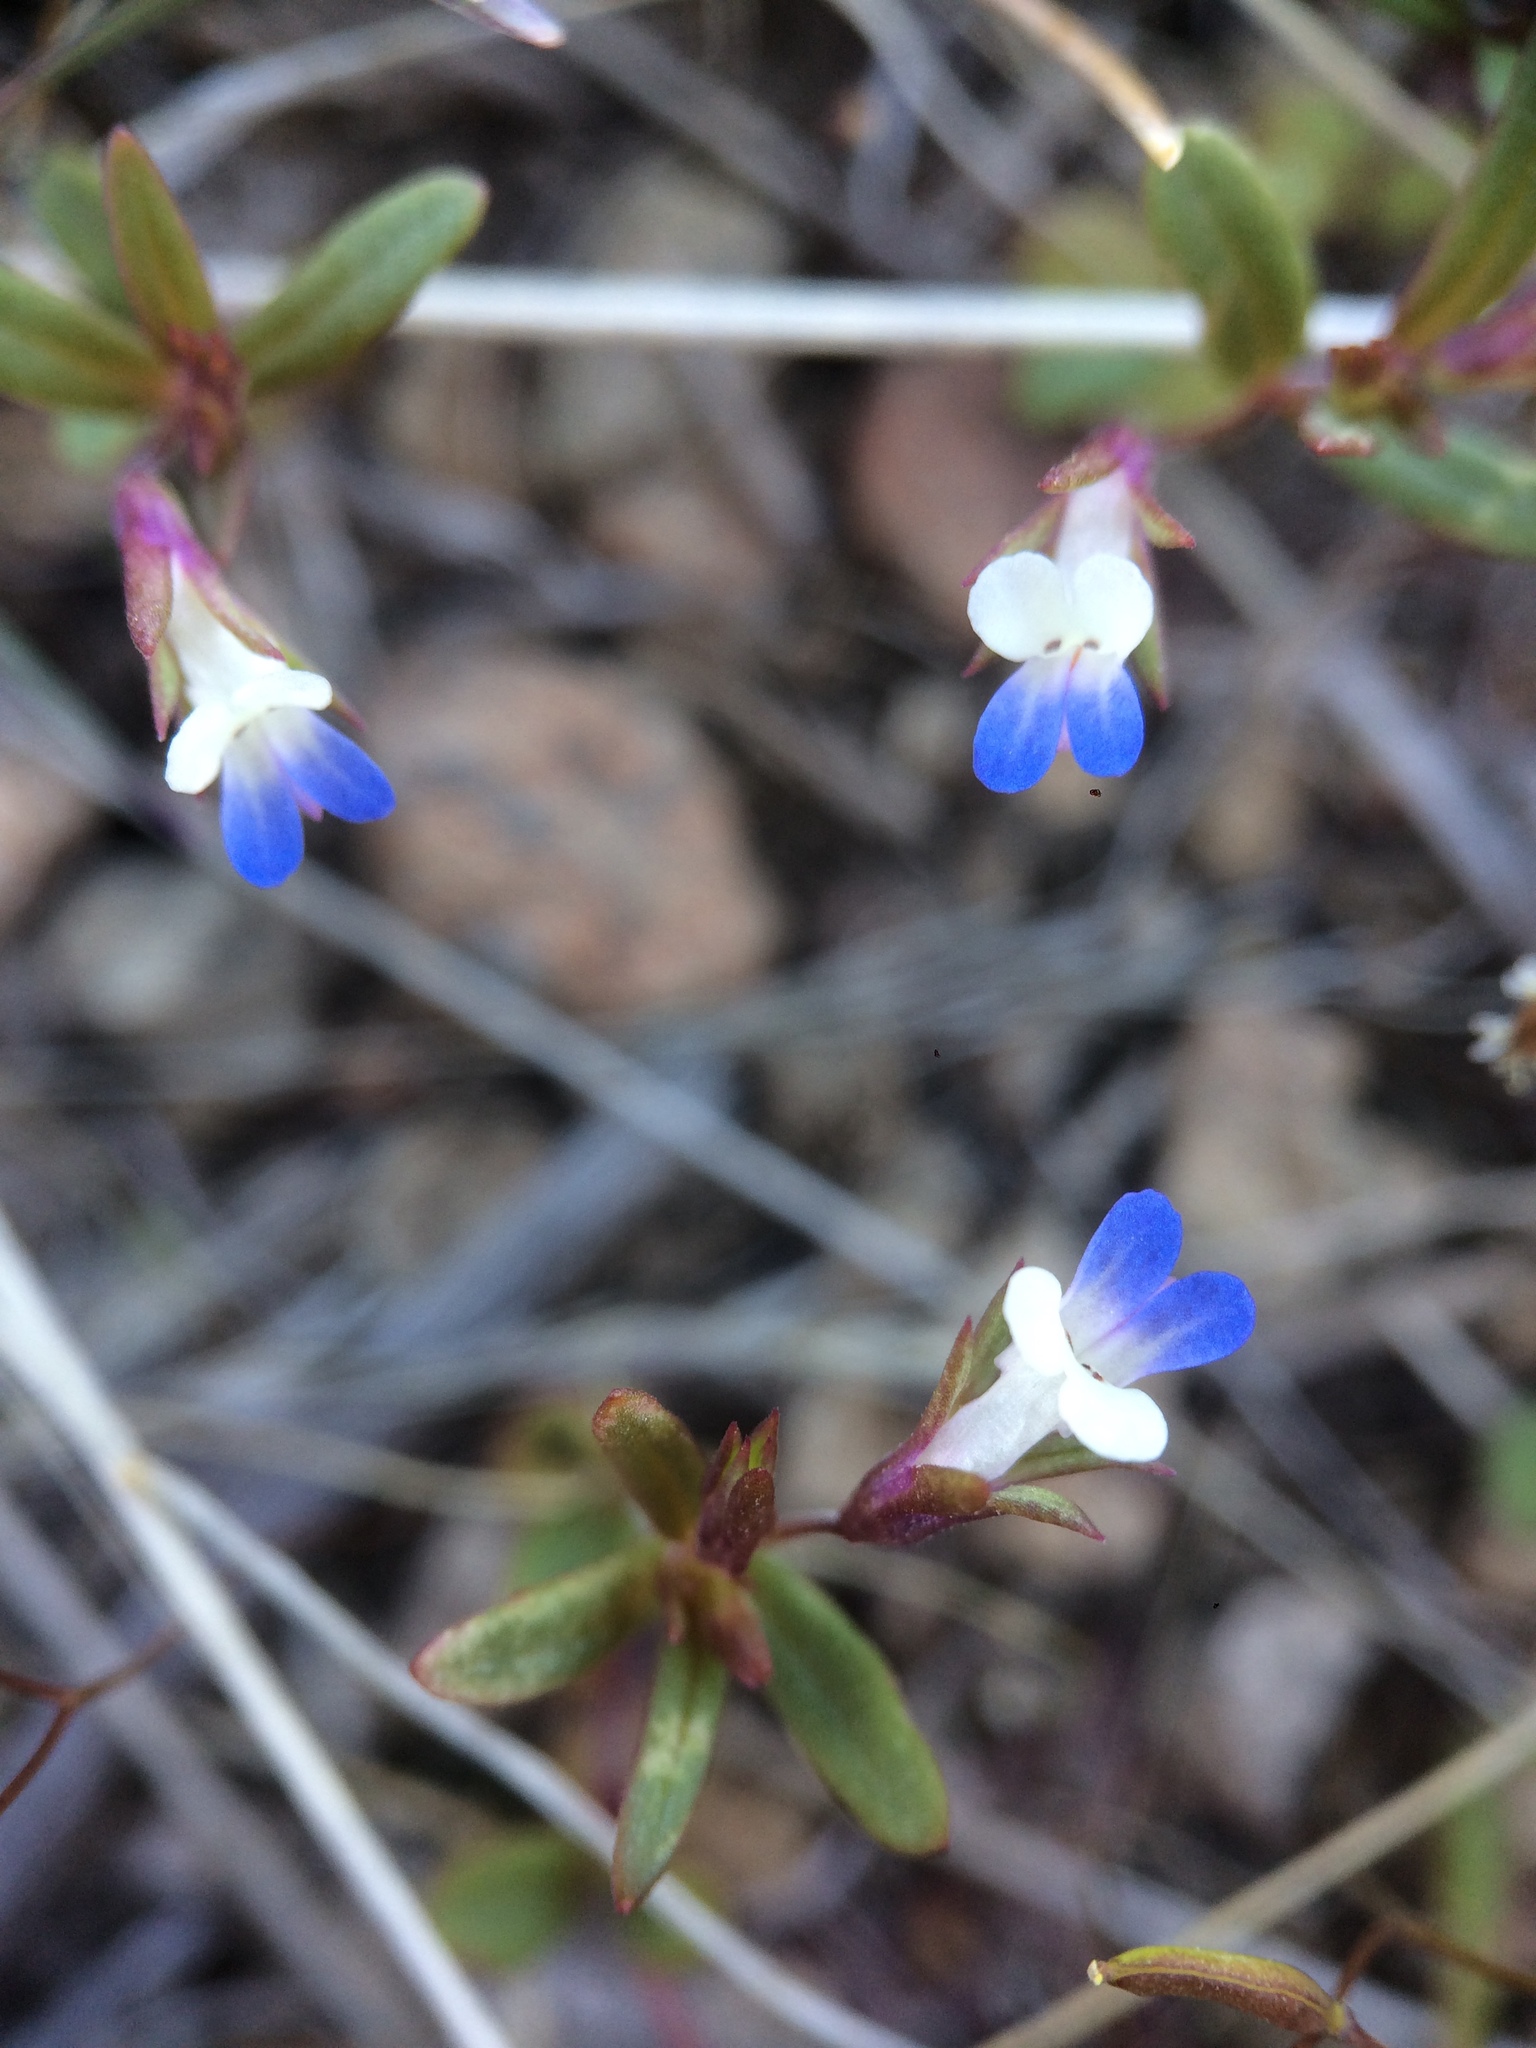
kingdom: Plantae
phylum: Tracheophyta
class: Magnoliopsida
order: Lamiales
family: Plantaginaceae
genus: Collinsia
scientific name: Collinsia parviflora
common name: Blue-lips
